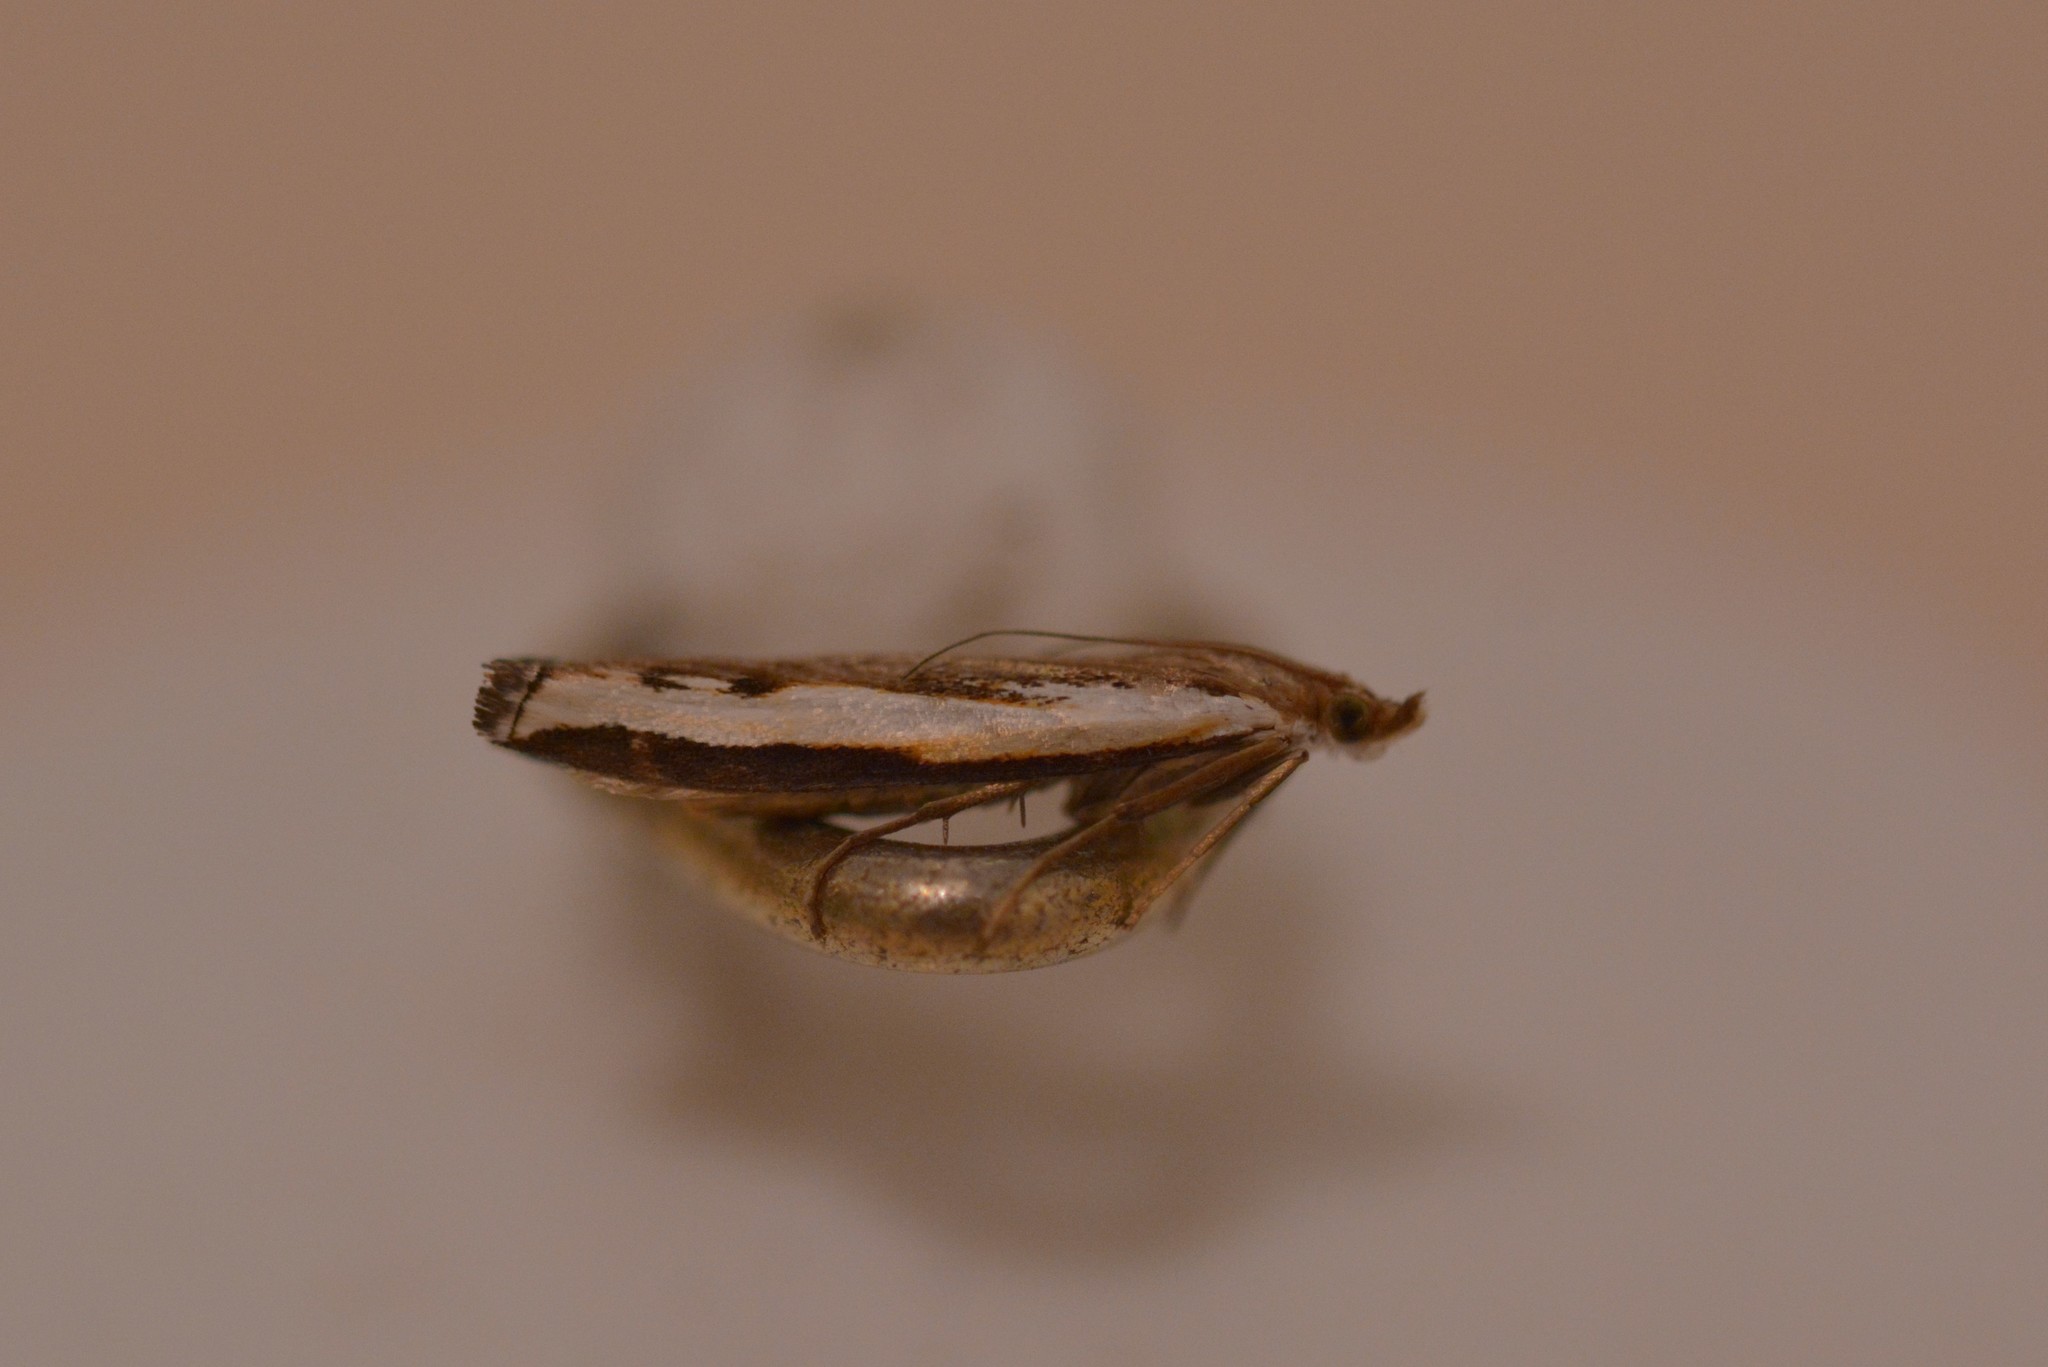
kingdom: Animalia
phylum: Arthropoda
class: Insecta
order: Lepidoptera
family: Crambidae
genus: Orocrambus
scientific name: Orocrambus flexuosellus
